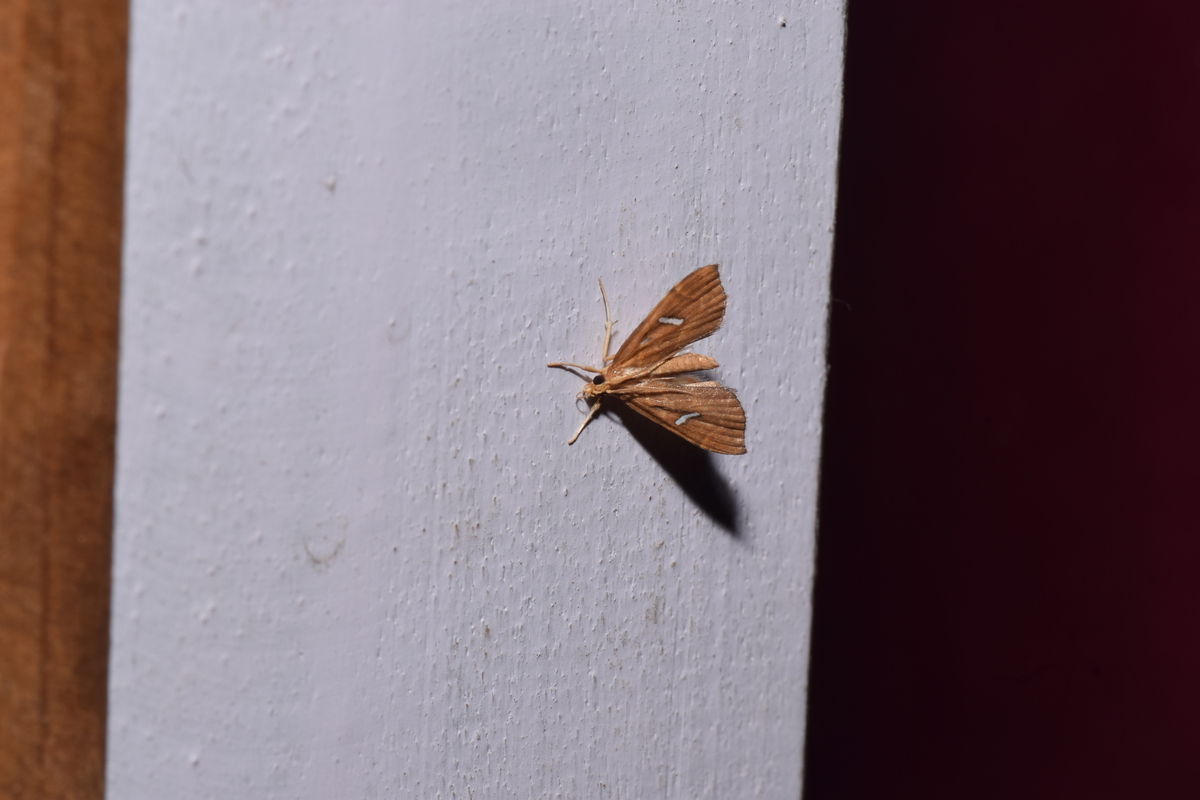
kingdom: Animalia
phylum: Arthropoda
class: Insecta
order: Lepidoptera
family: Pyralidae
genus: Uthinia
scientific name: Uthinia albisignalis
